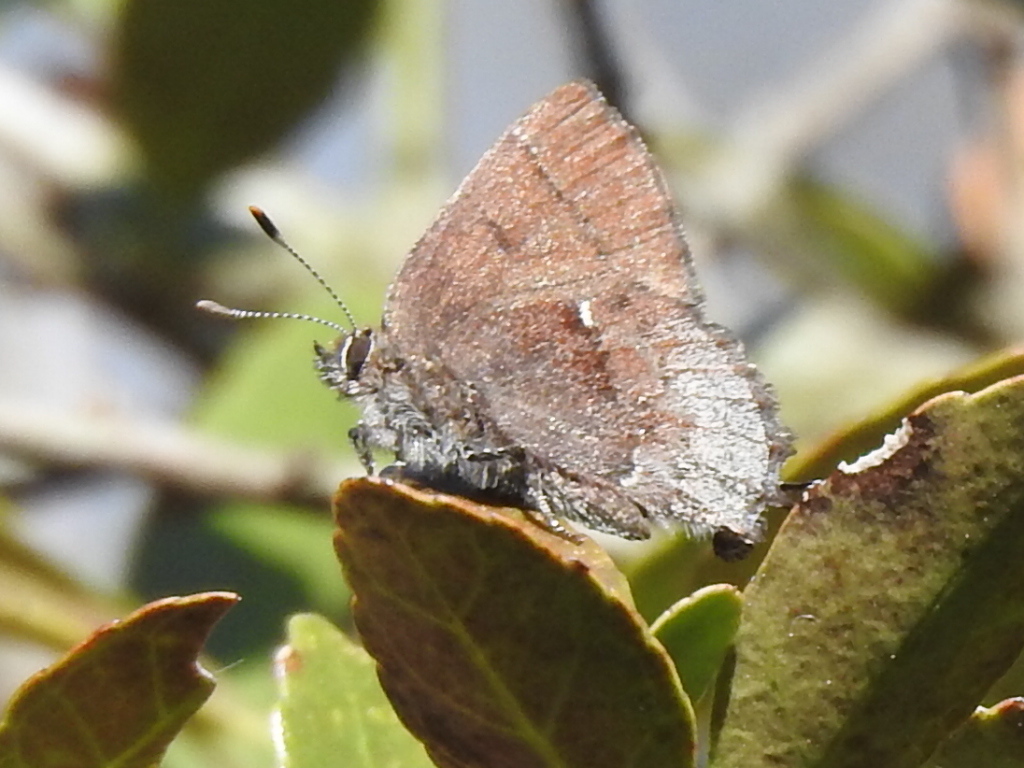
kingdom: Animalia
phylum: Arthropoda
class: Insecta
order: Lepidoptera
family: Lycaenidae
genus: Incisalia
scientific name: Incisalia henrici
